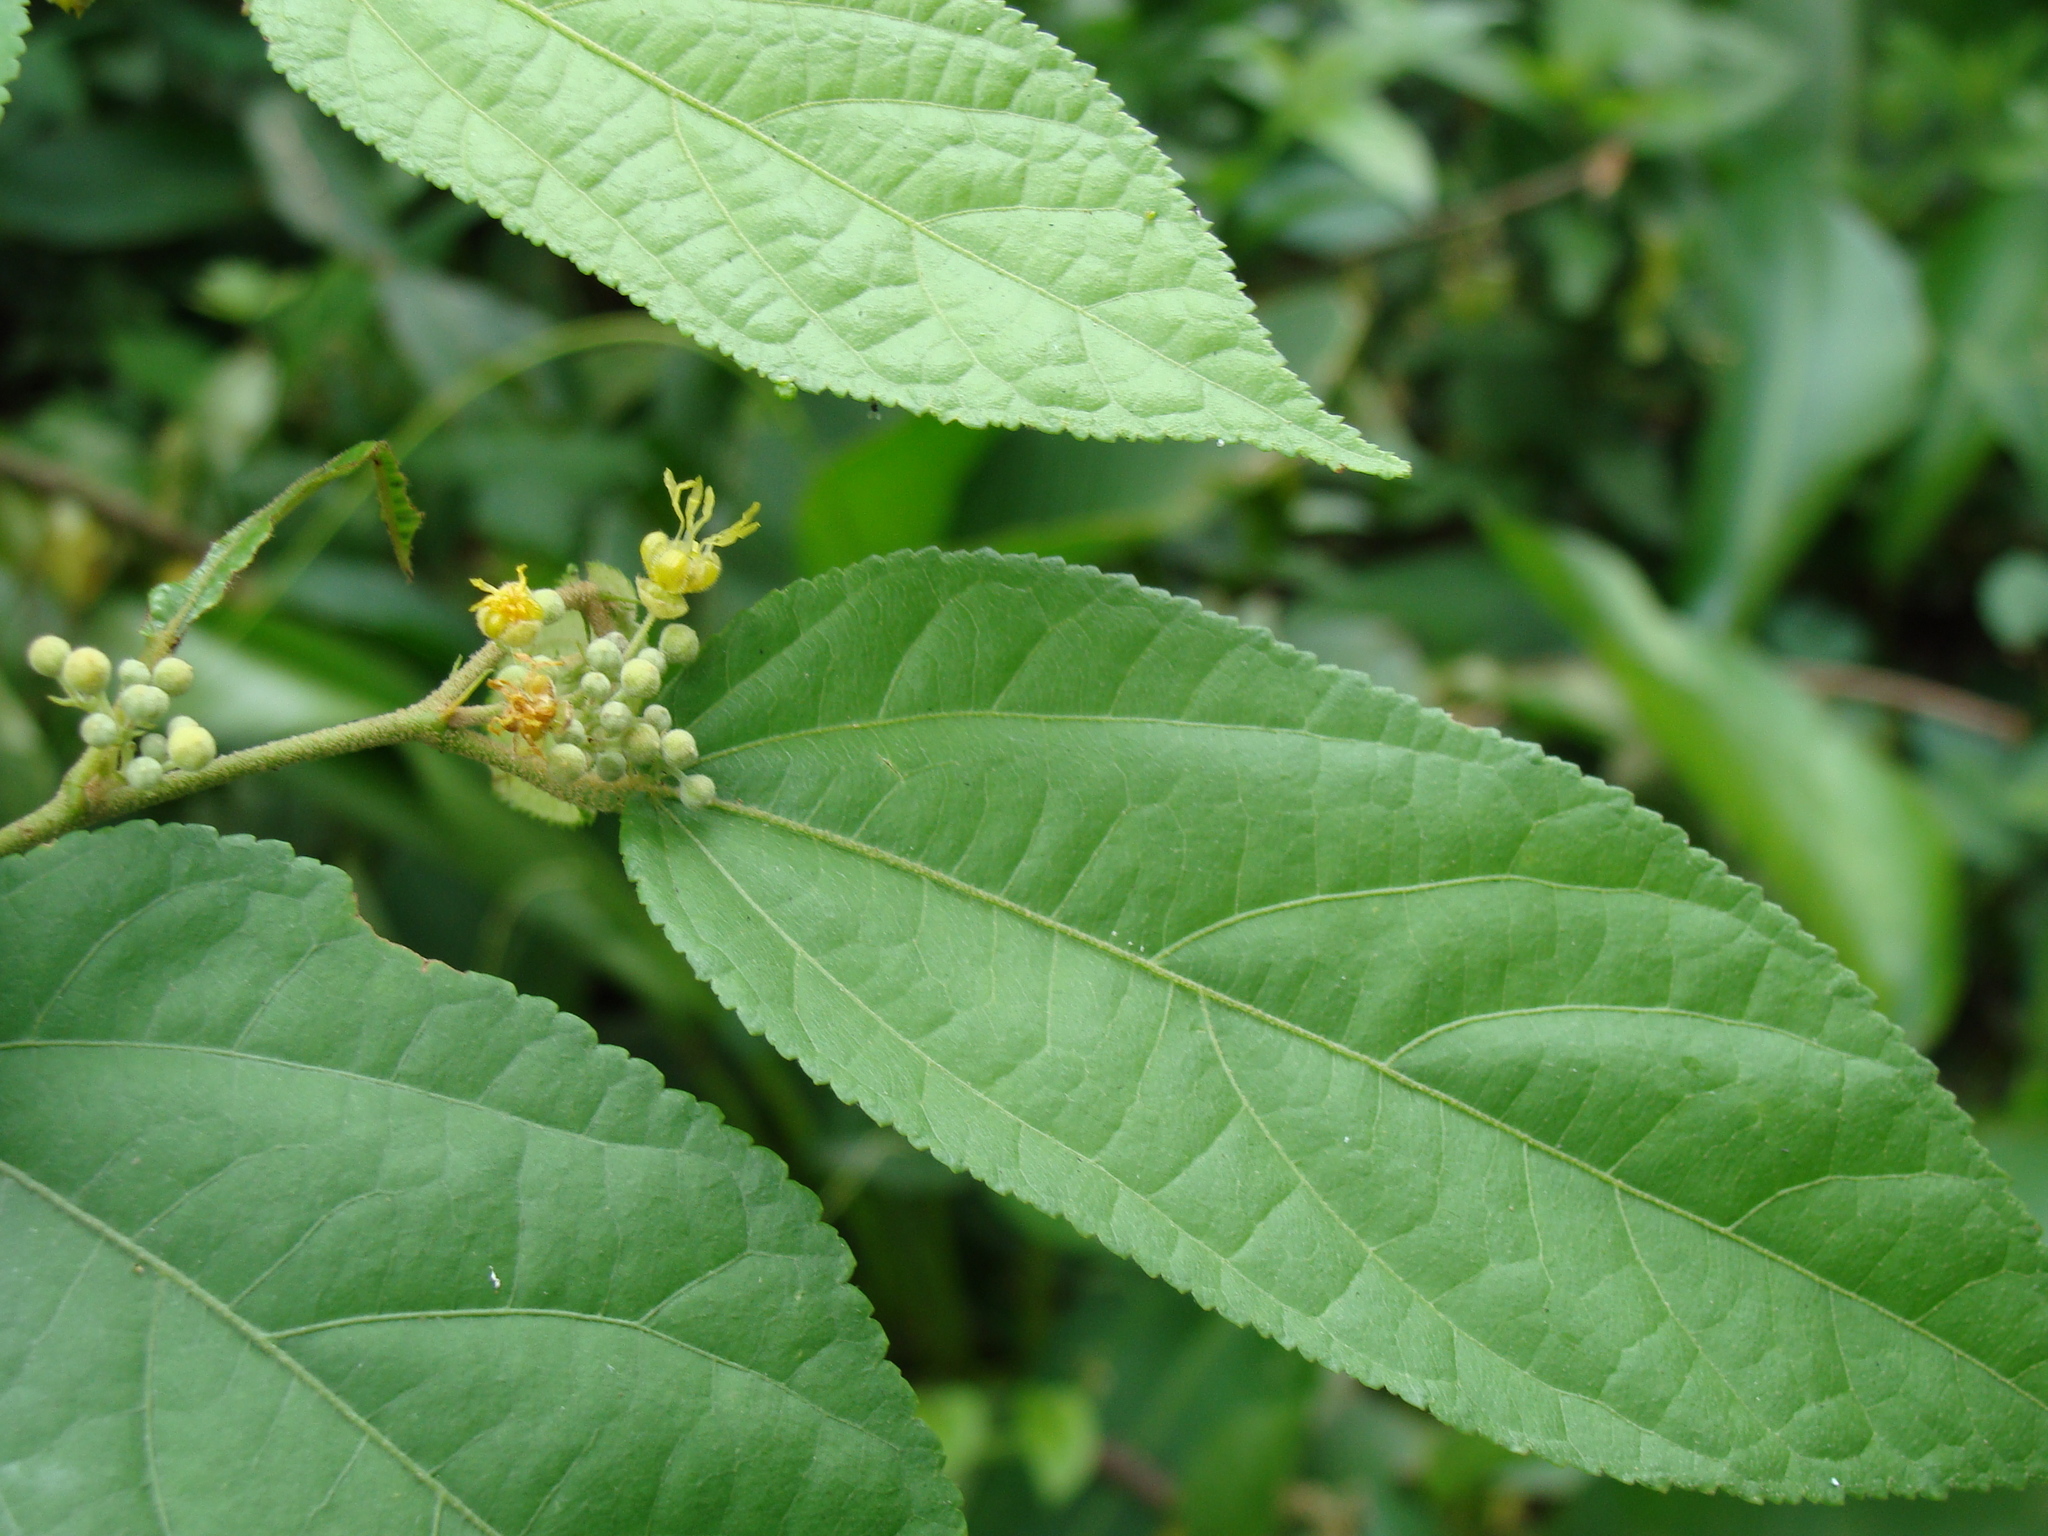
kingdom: Plantae
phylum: Tracheophyta
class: Magnoliopsida
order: Malvales
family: Malvaceae
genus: Guazuma
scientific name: Guazuma ulmifolia
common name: Bastard-cedar
